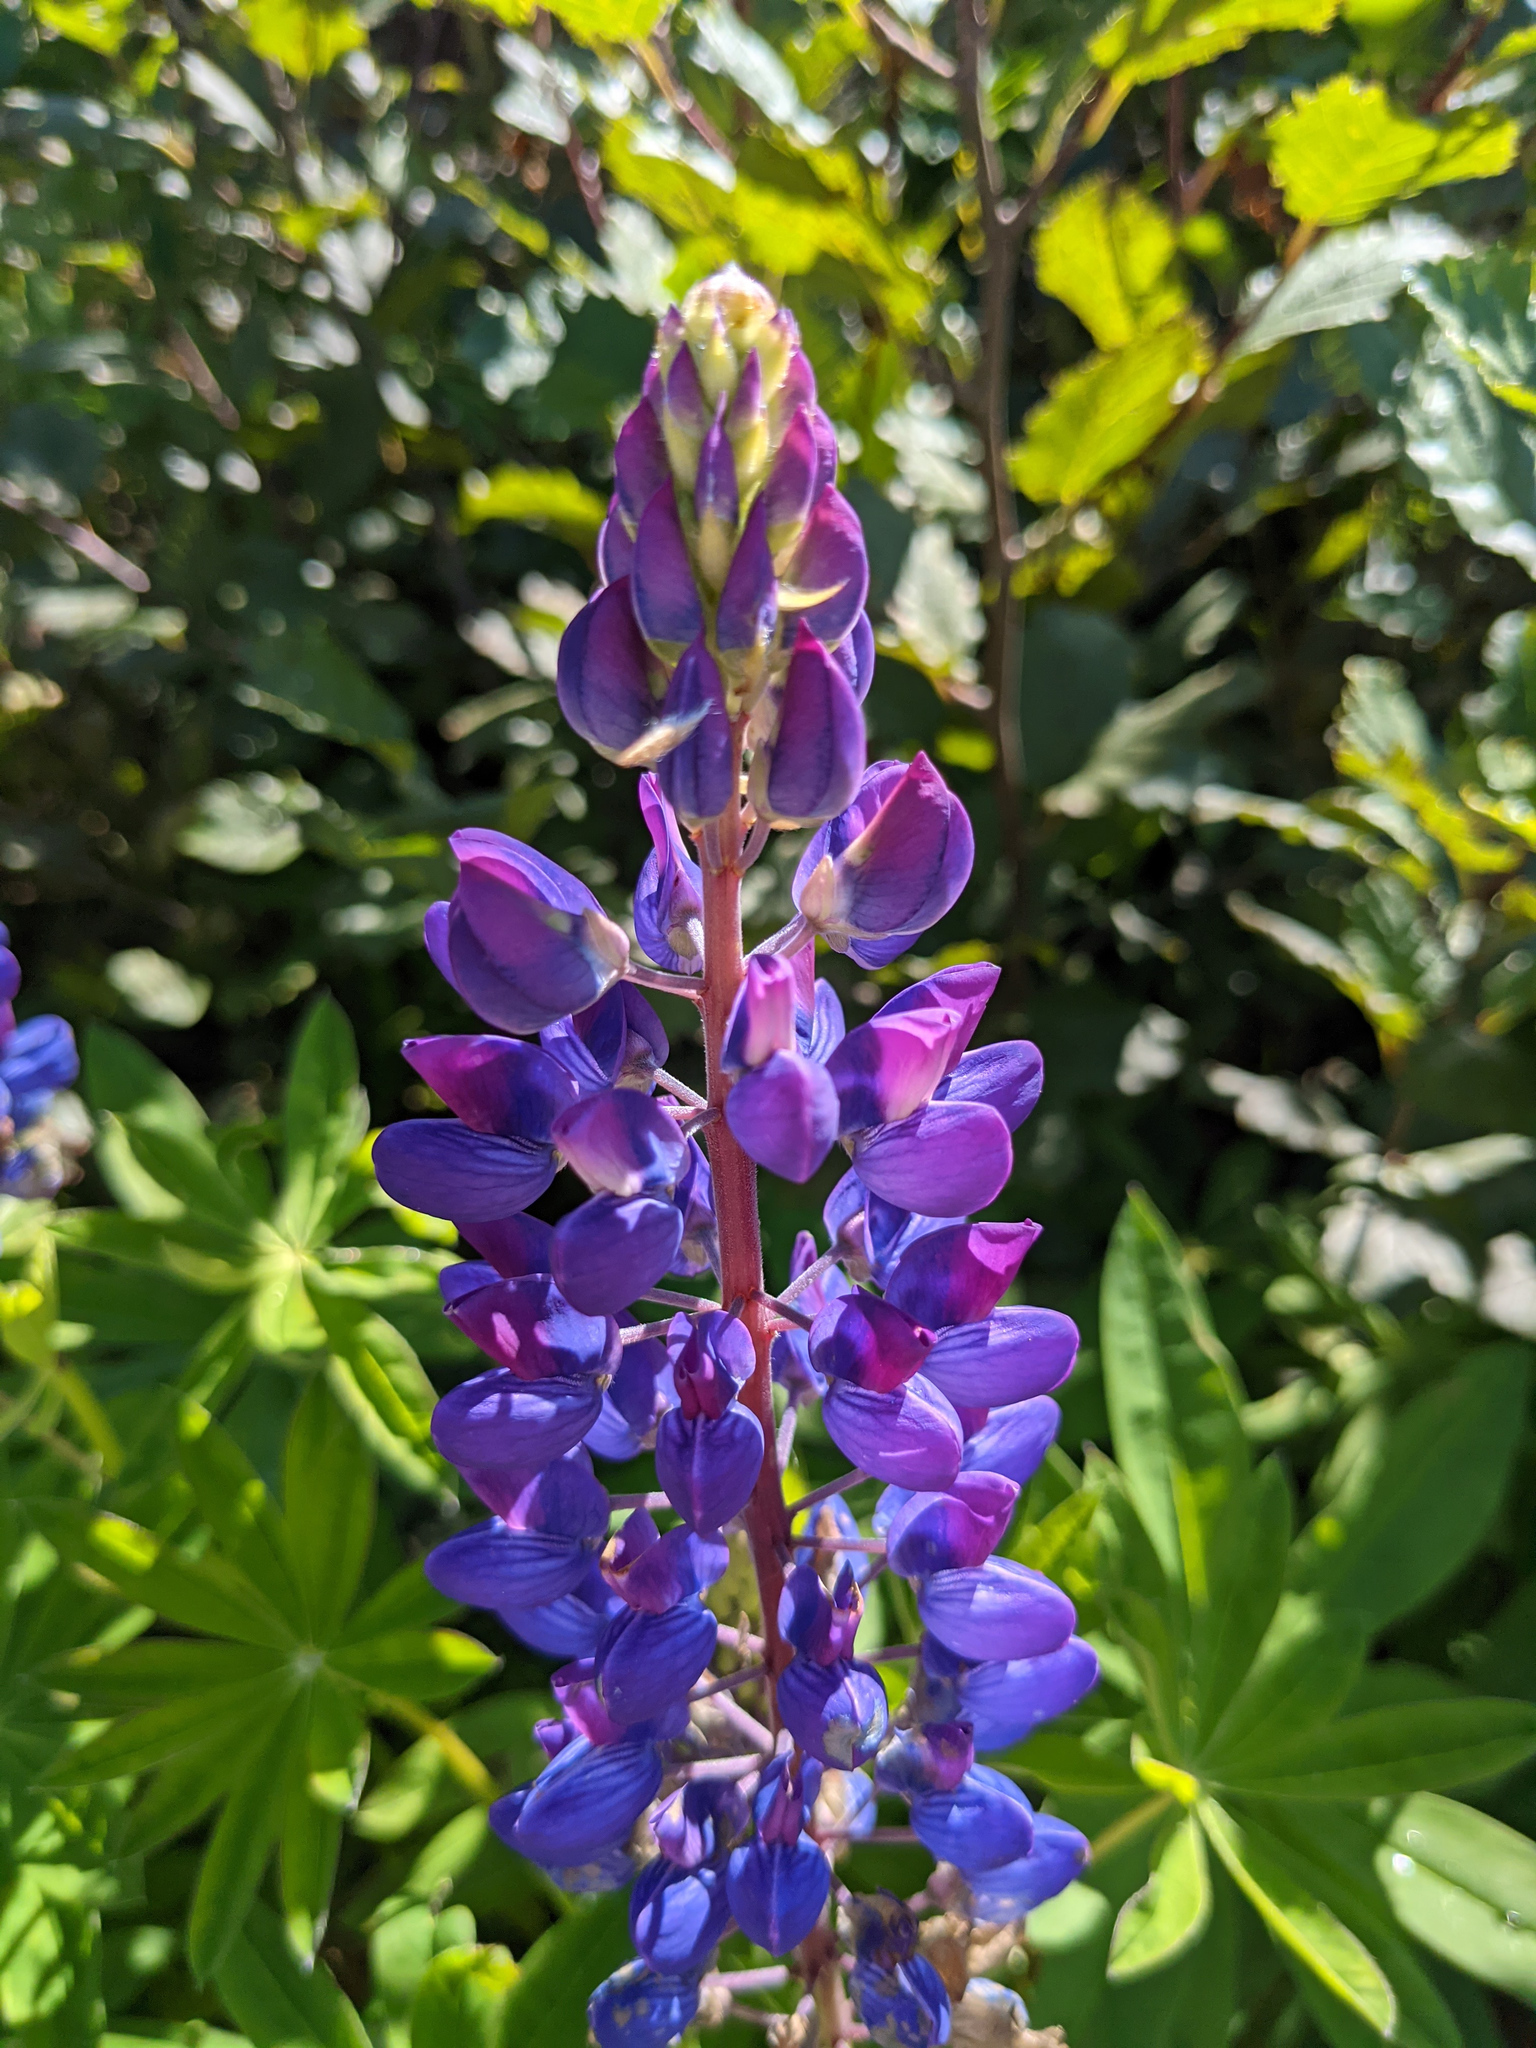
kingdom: Plantae
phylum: Tracheophyta
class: Magnoliopsida
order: Fabales
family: Fabaceae
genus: Lupinus
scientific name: Lupinus polyphyllus
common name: Garden lupin
